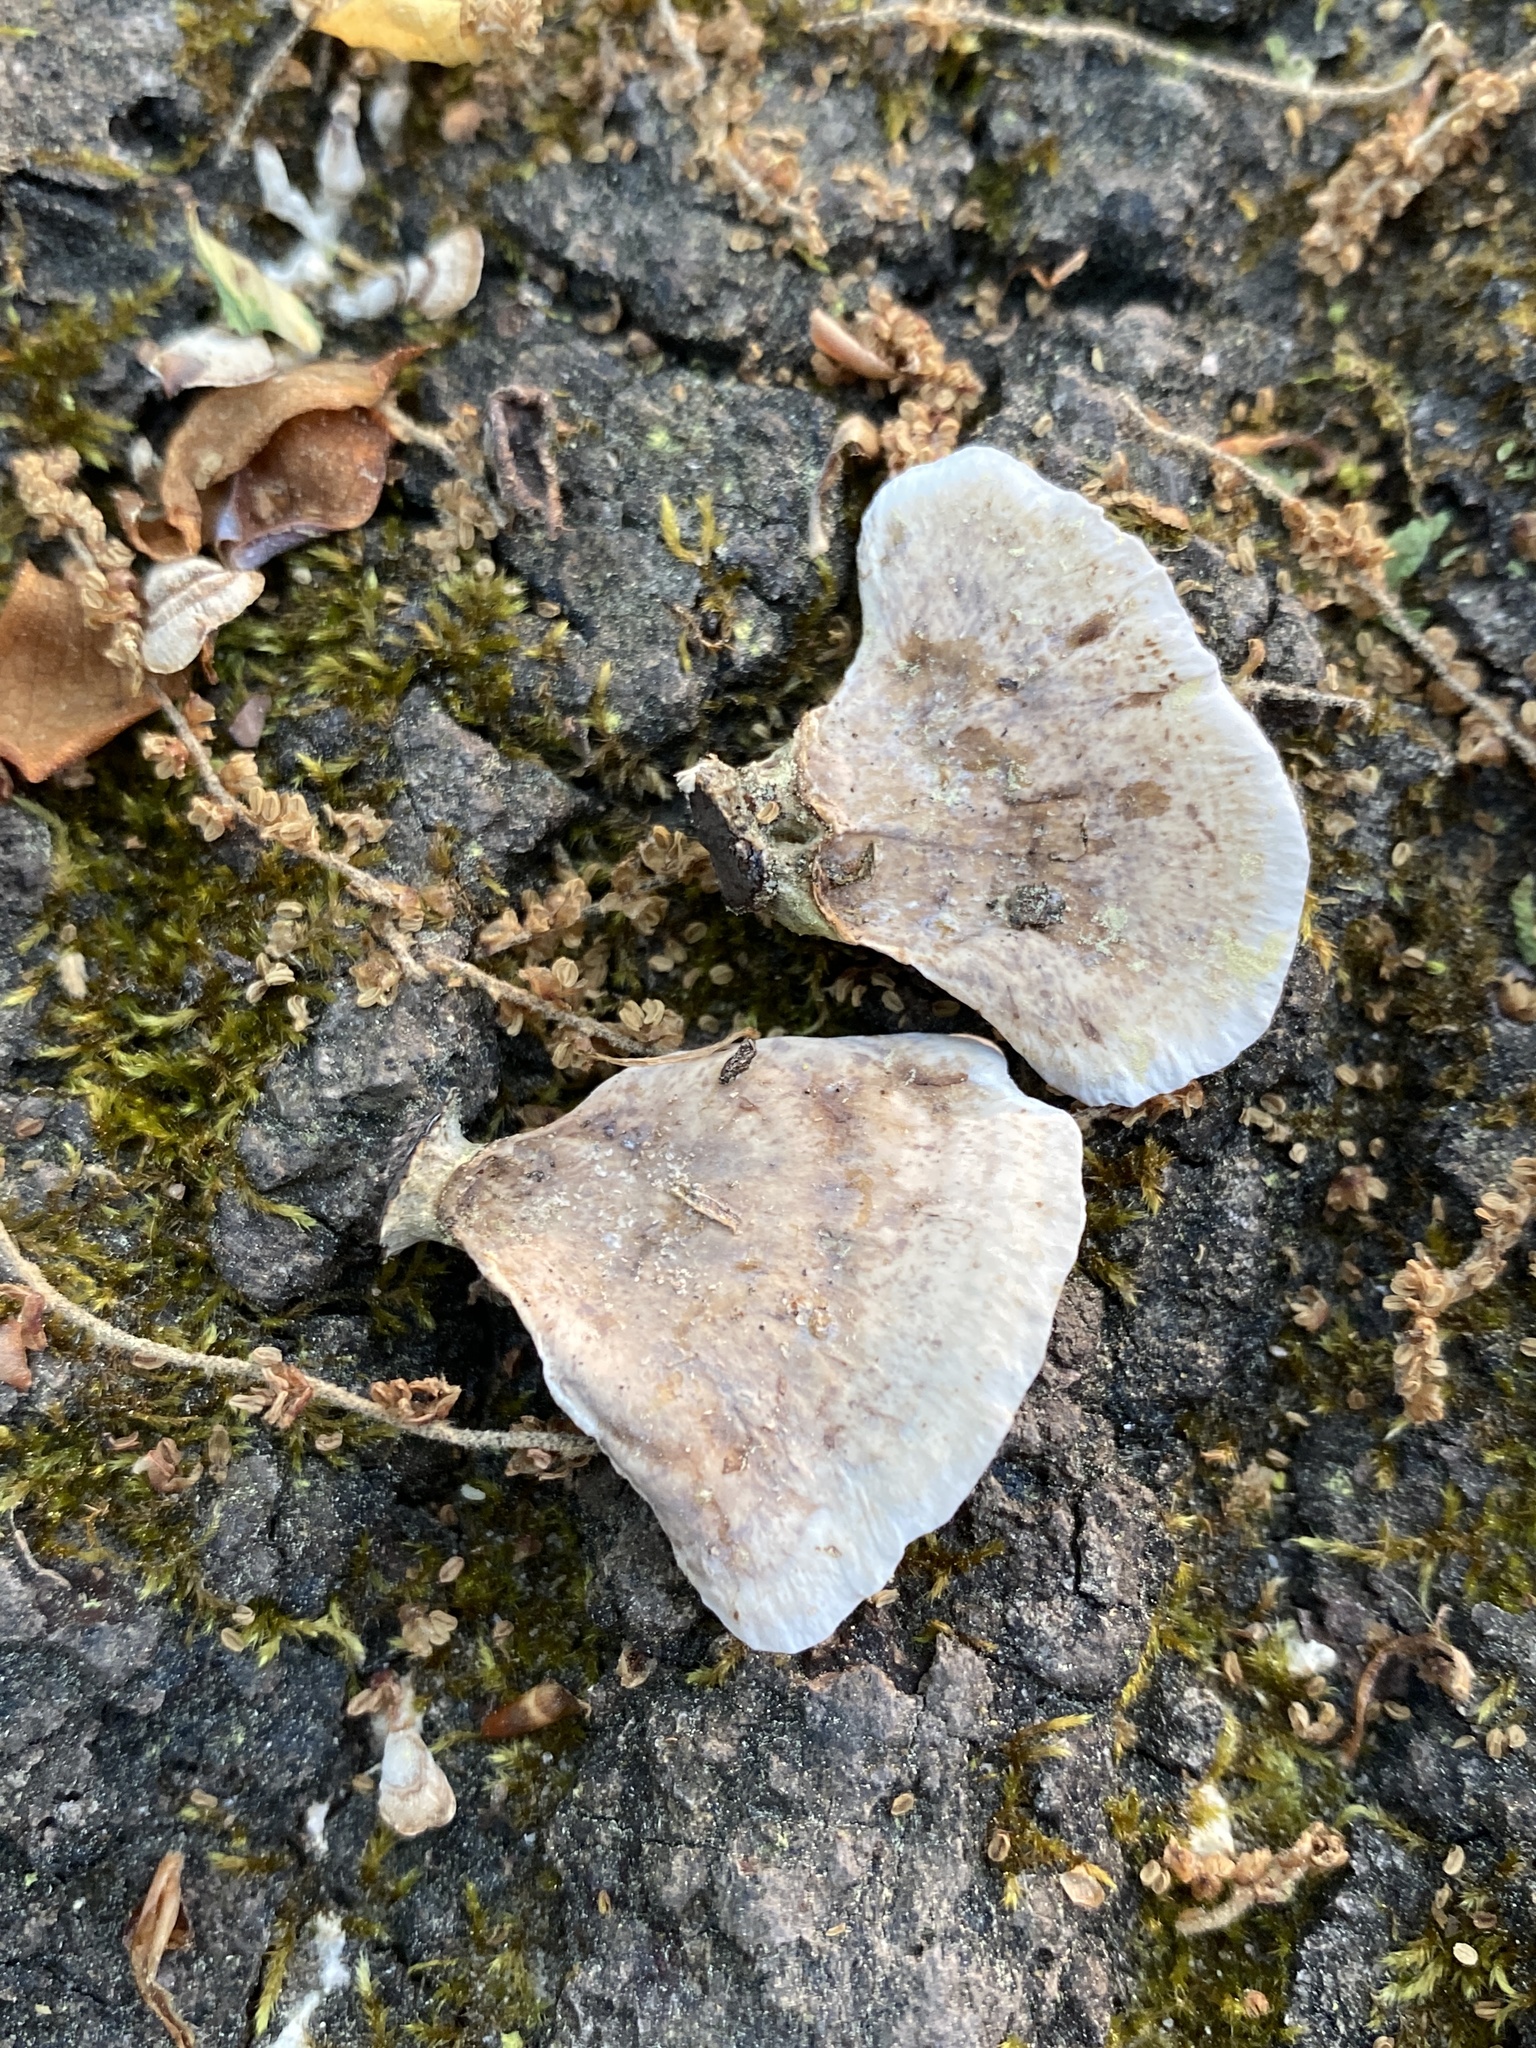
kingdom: Fungi
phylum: Basidiomycota
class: Agaricomycetes
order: Russulales
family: Stereaceae
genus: Stereum
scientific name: Stereum lobatum
